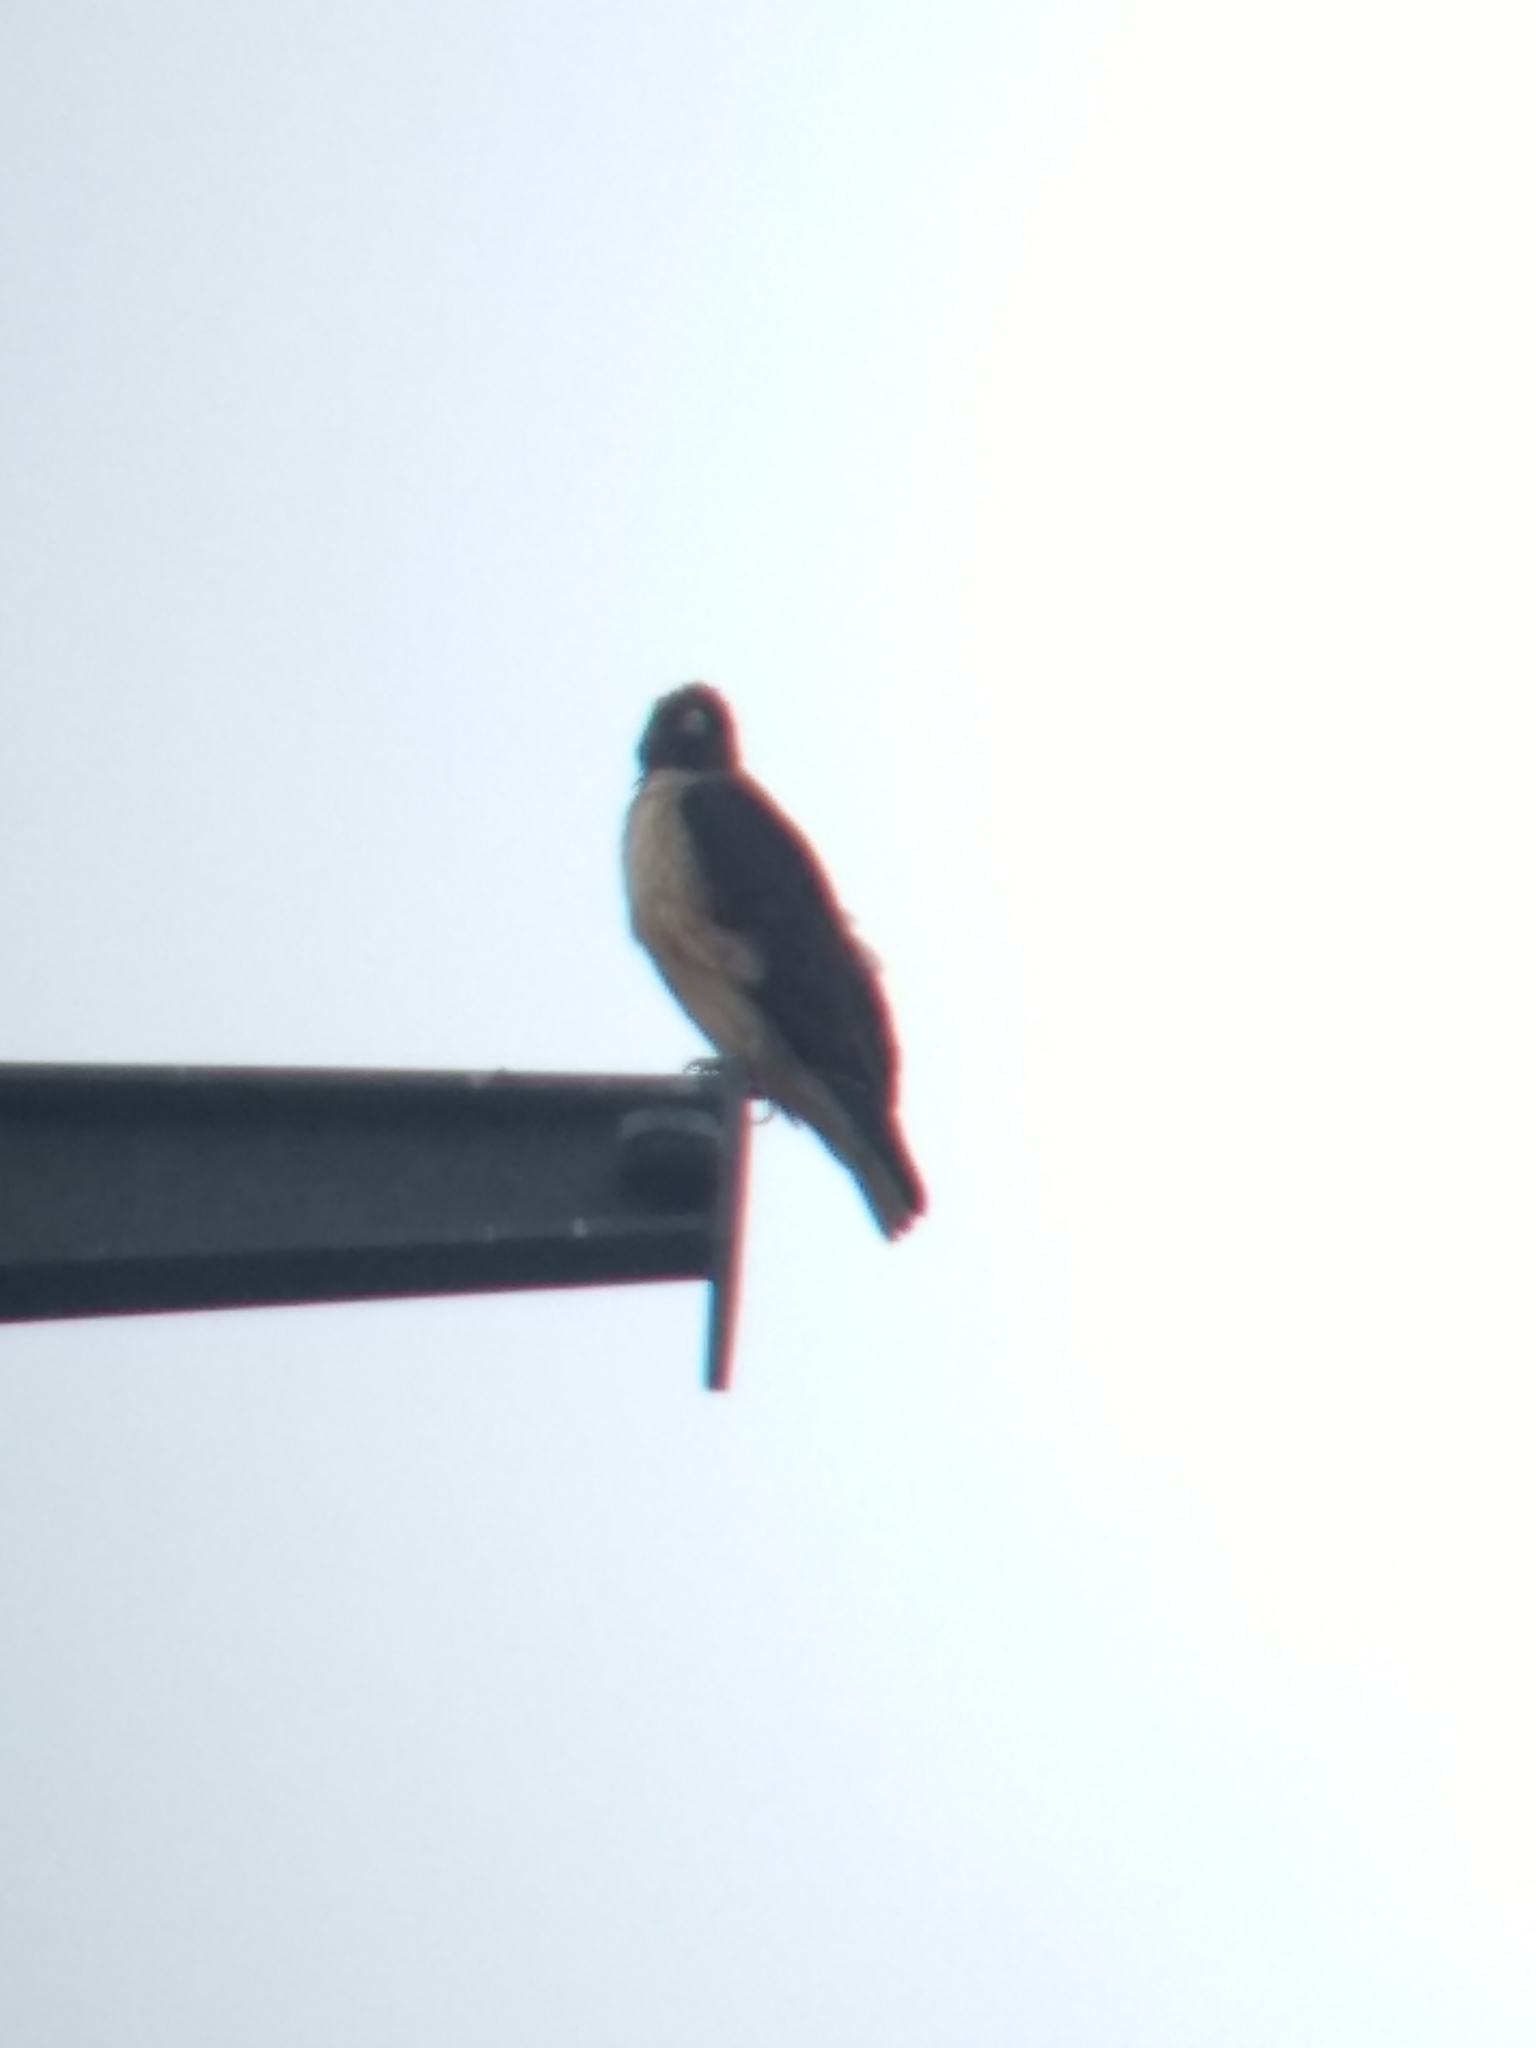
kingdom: Animalia
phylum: Chordata
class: Aves
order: Accipitriformes
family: Accipitridae
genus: Buteo
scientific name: Buteo jamaicensis
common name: Red-tailed hawk
